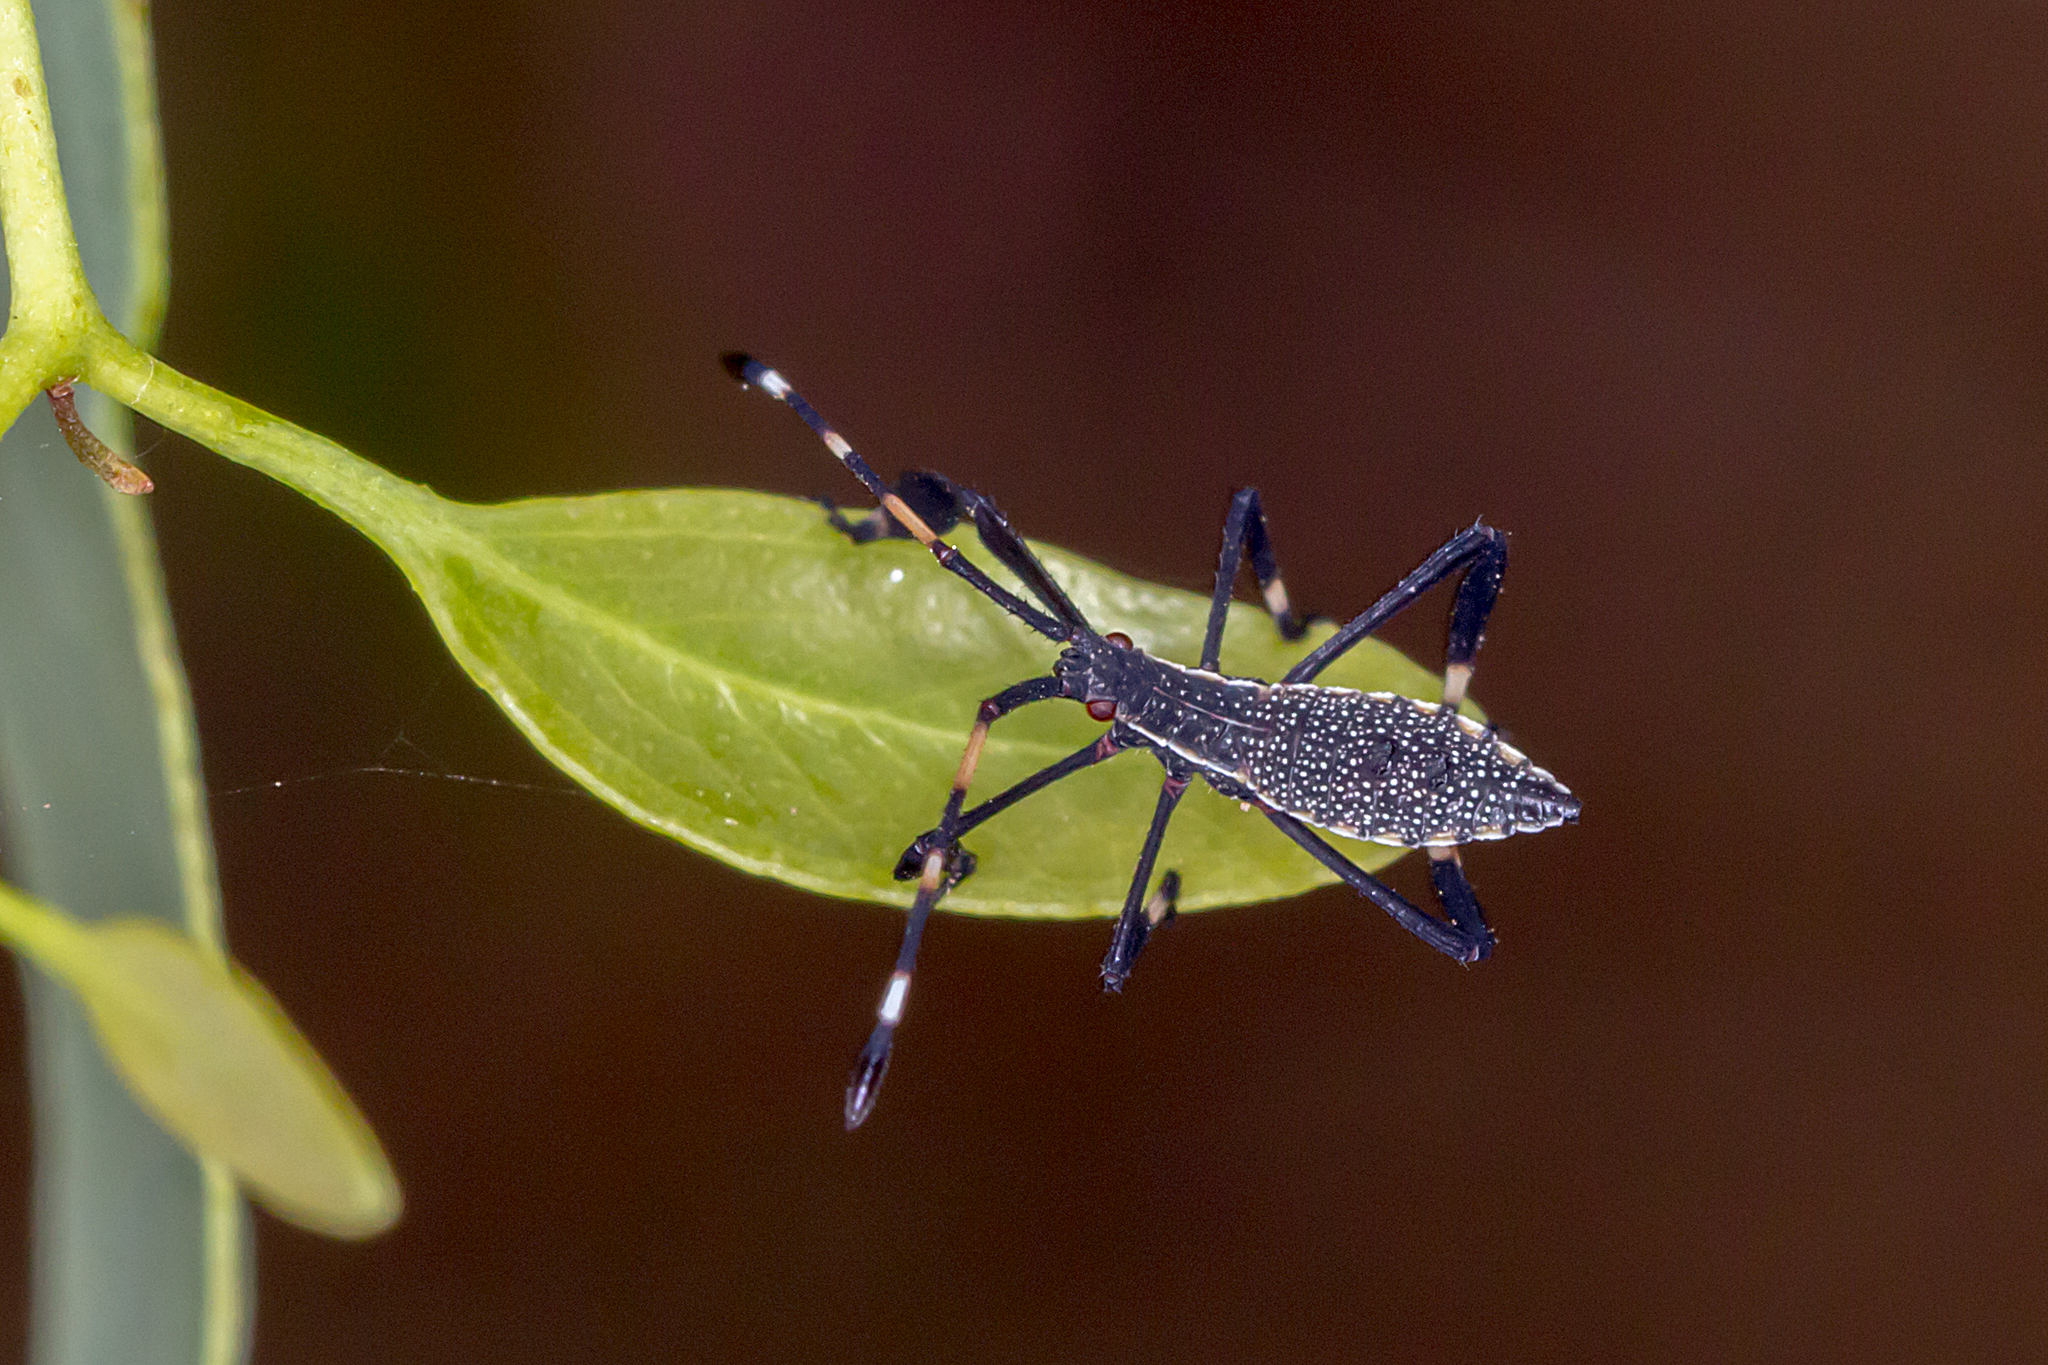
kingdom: Animalia
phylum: Arthropoda
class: Insecta
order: Hemiptera
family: Coreidae
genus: Gelonus
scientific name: Gelonus tasmanicus
